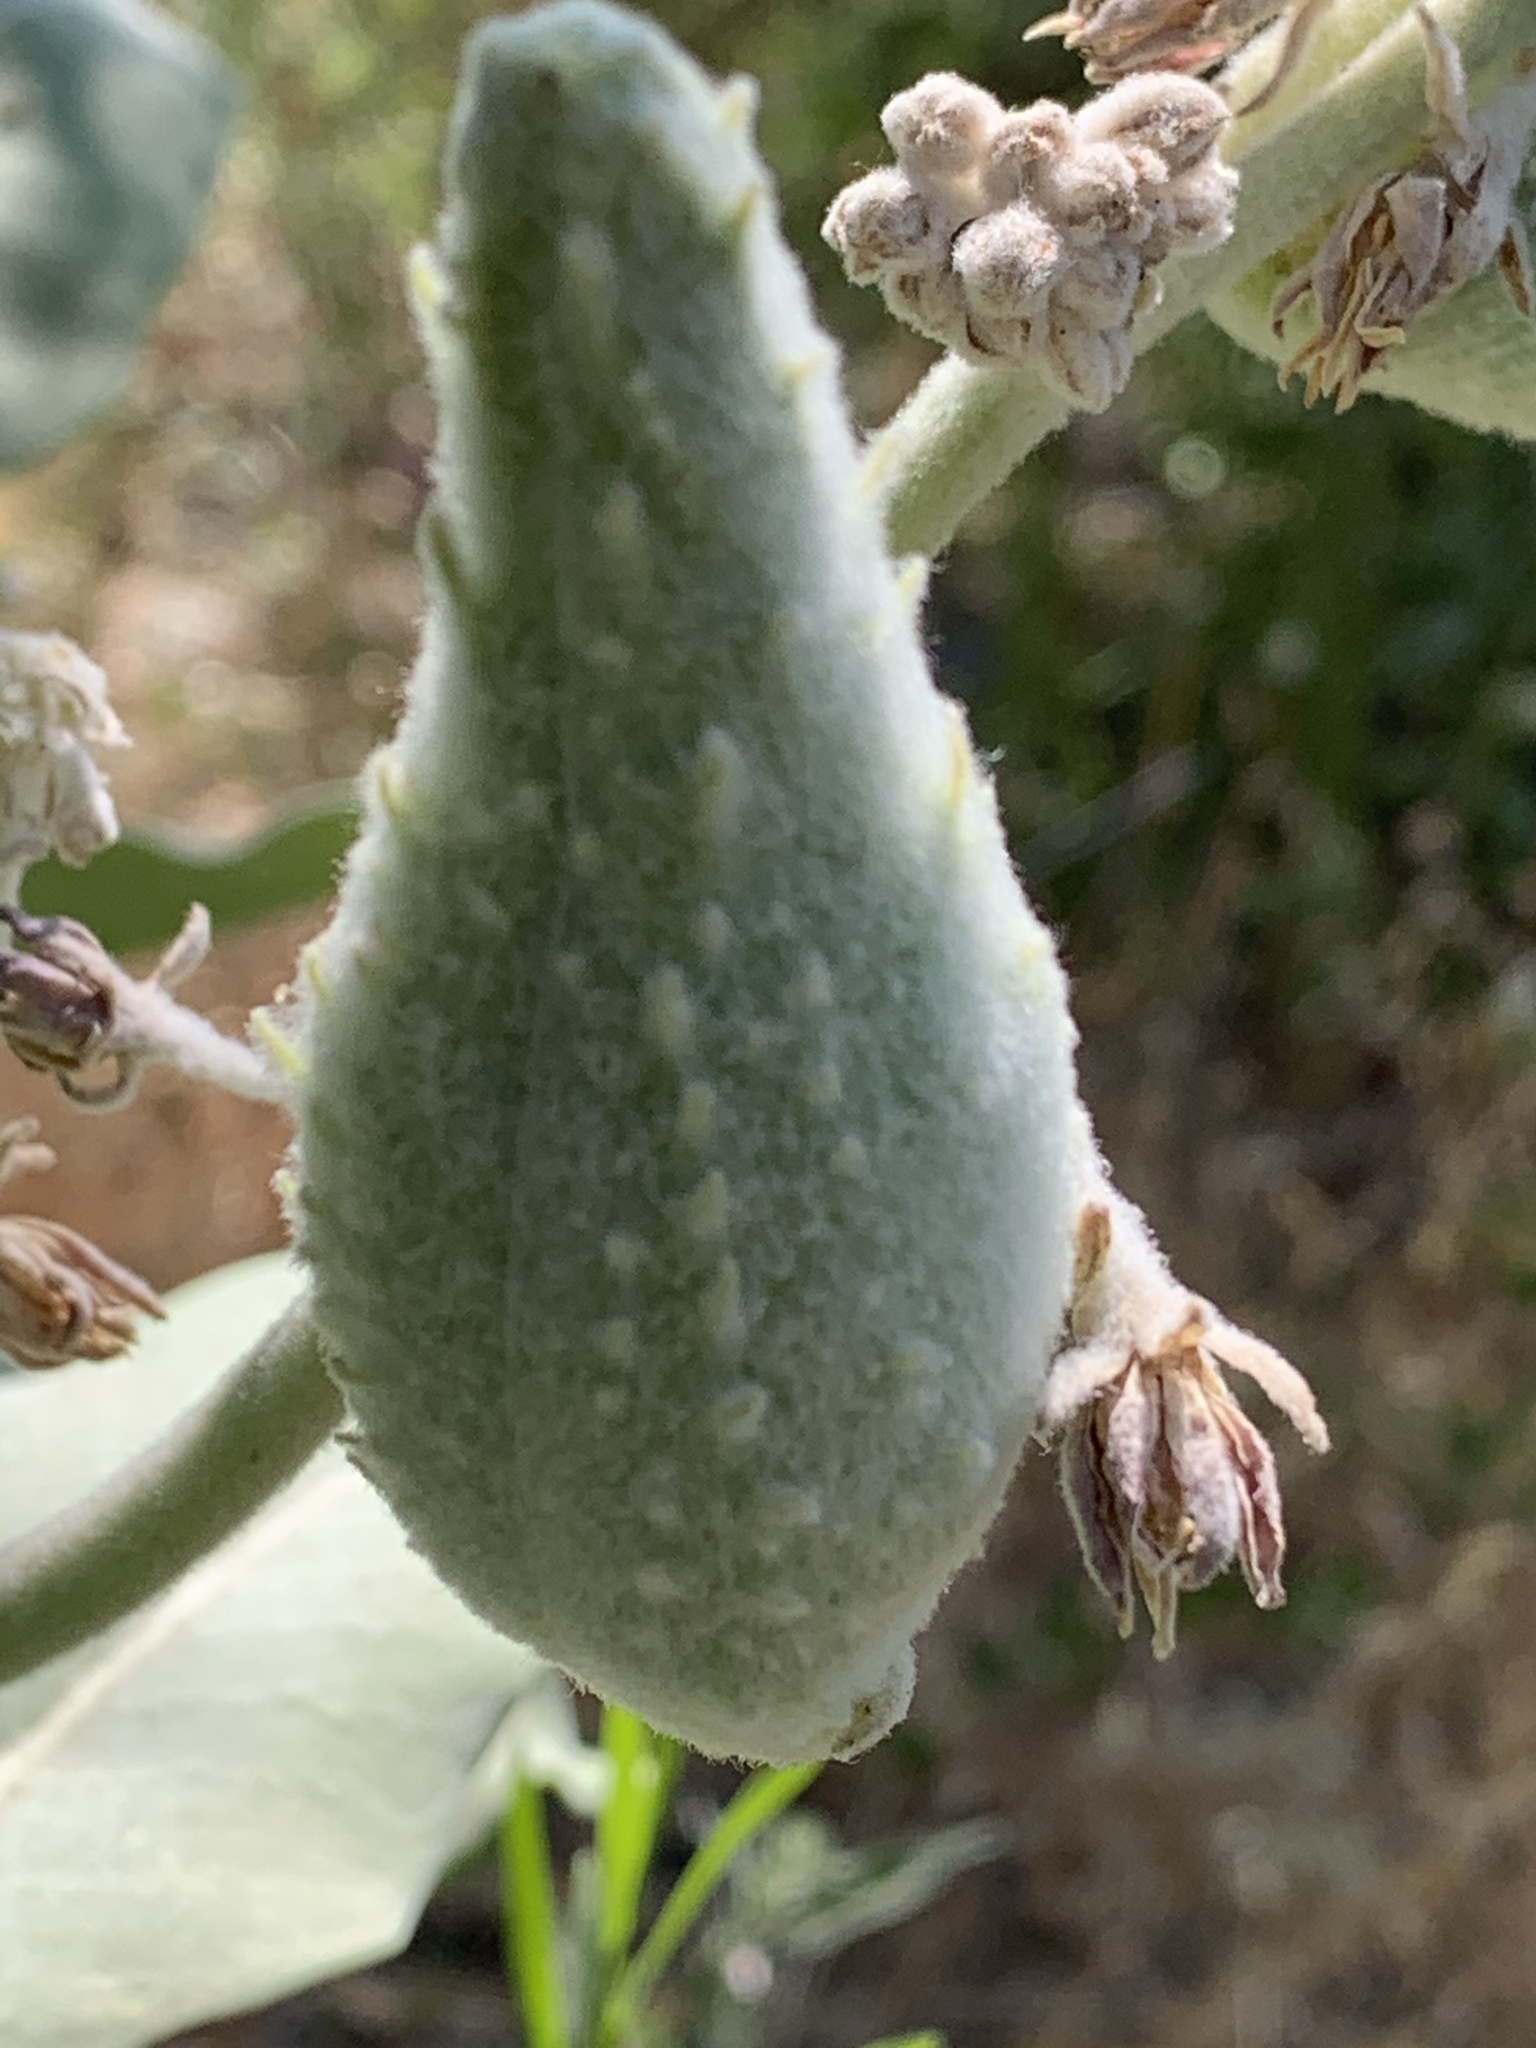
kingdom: Plantae
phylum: Tracheophyta
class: Magnoliopsida
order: Gentianales
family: Apocynaceae
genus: Asclepias
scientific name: Asclepias speciosa
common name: Showy milkweed
